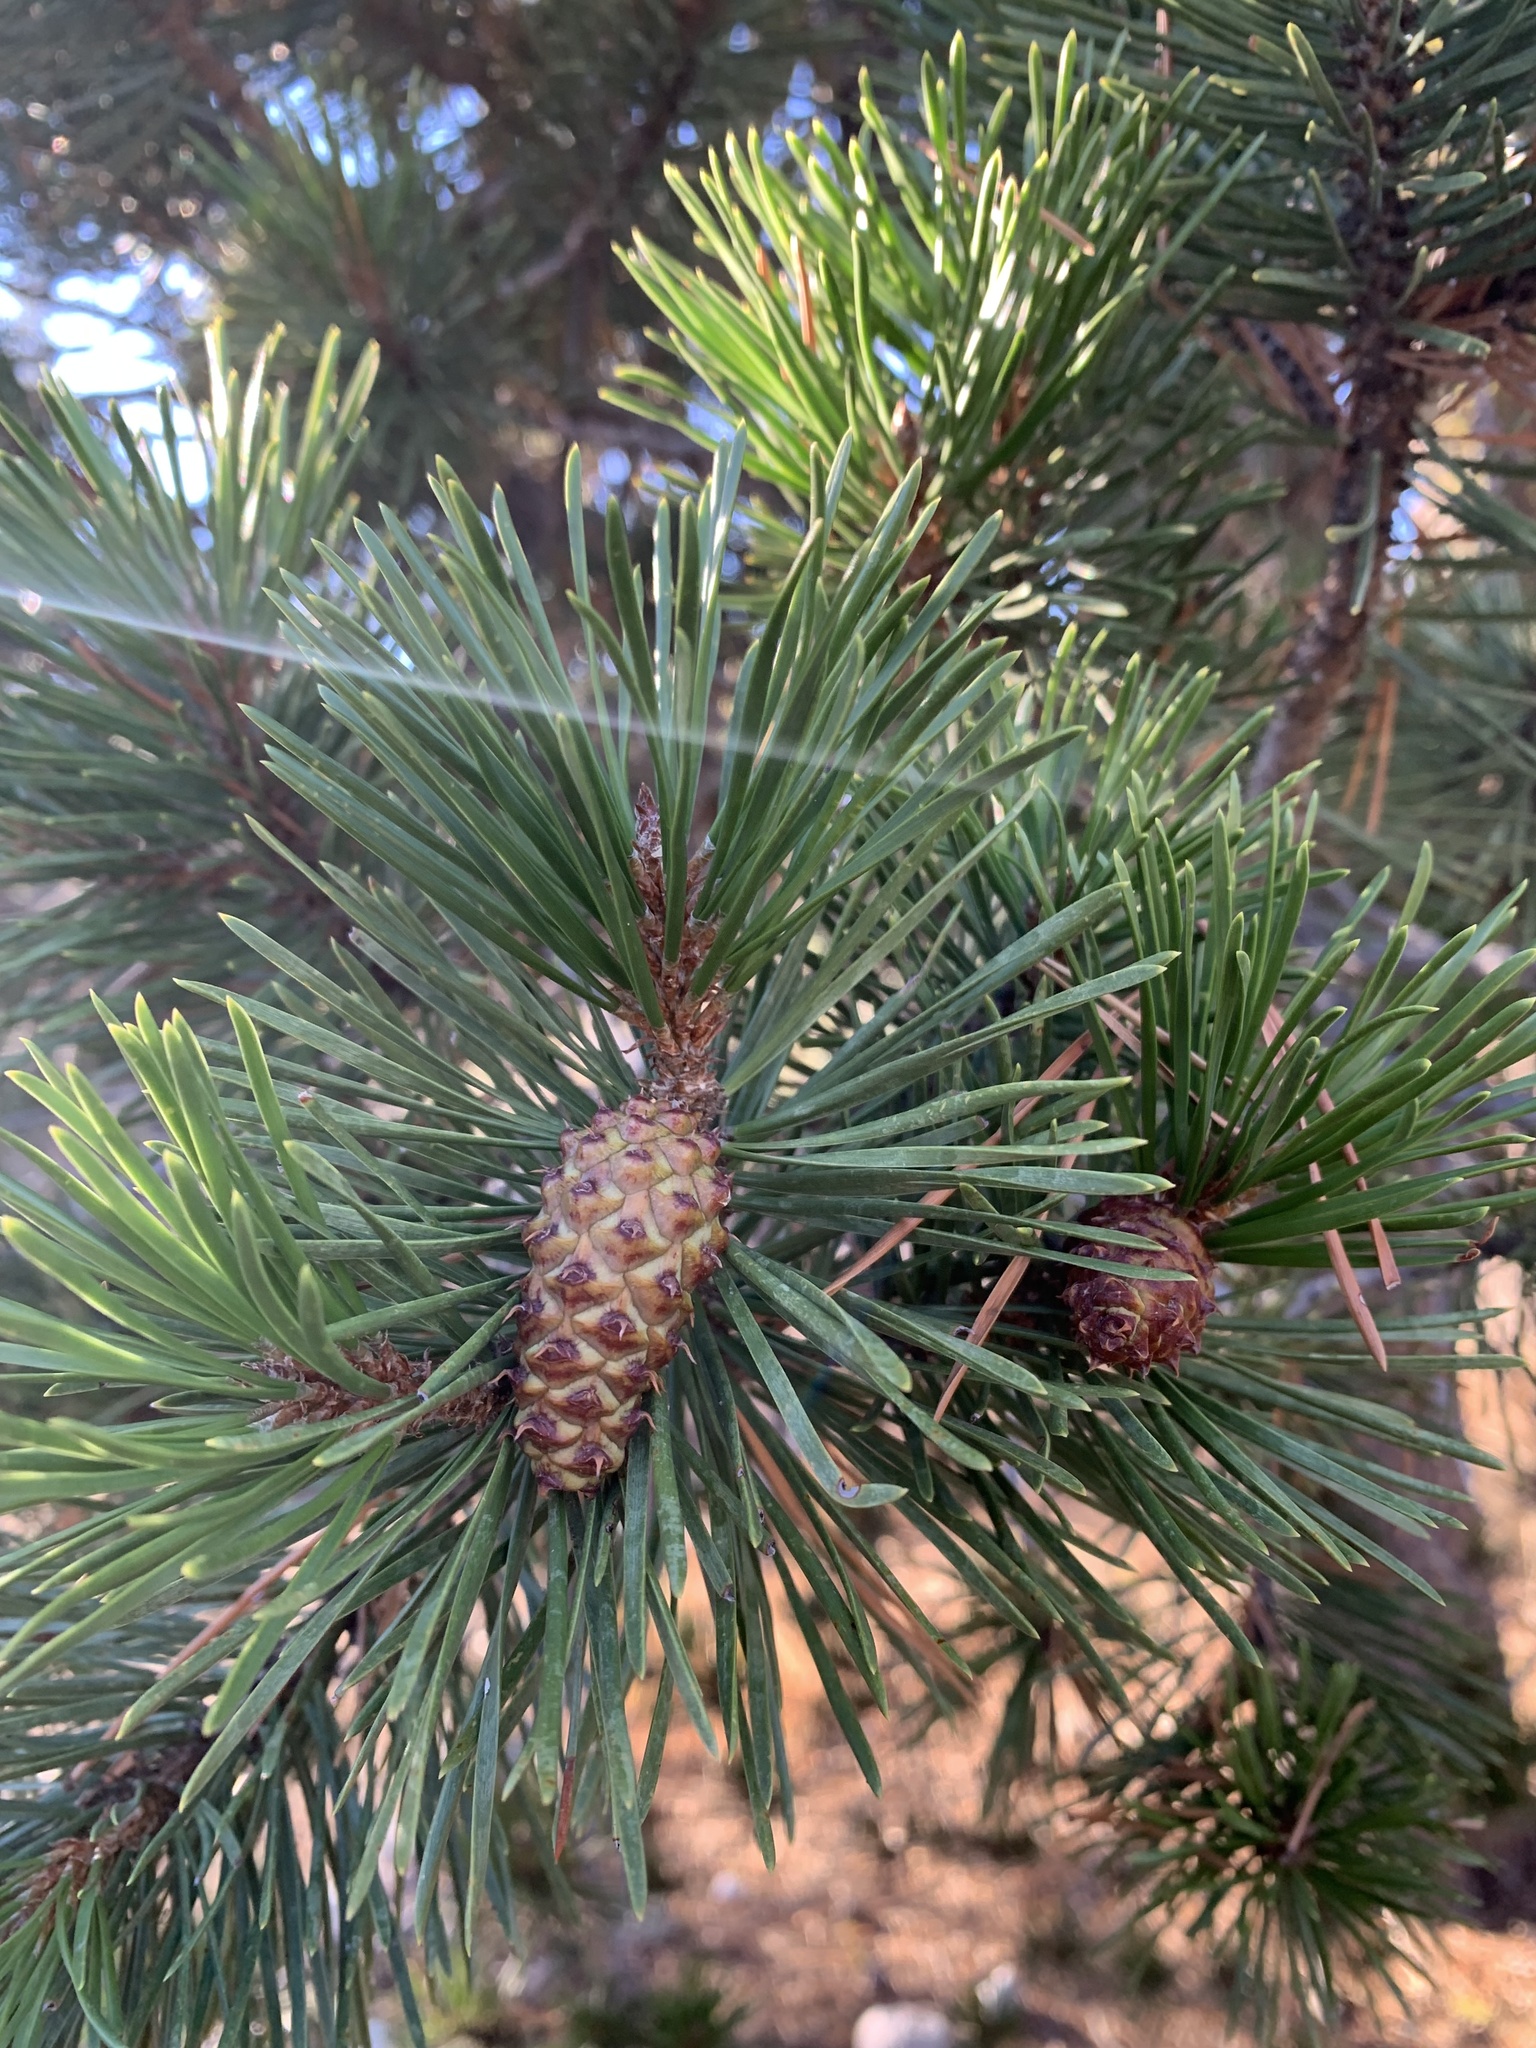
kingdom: Plantae
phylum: Tracheophyta
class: Pinopsida
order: Pinales
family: Pinaceae
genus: Pinus
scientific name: Pinus contorta
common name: Lodgepole pine
